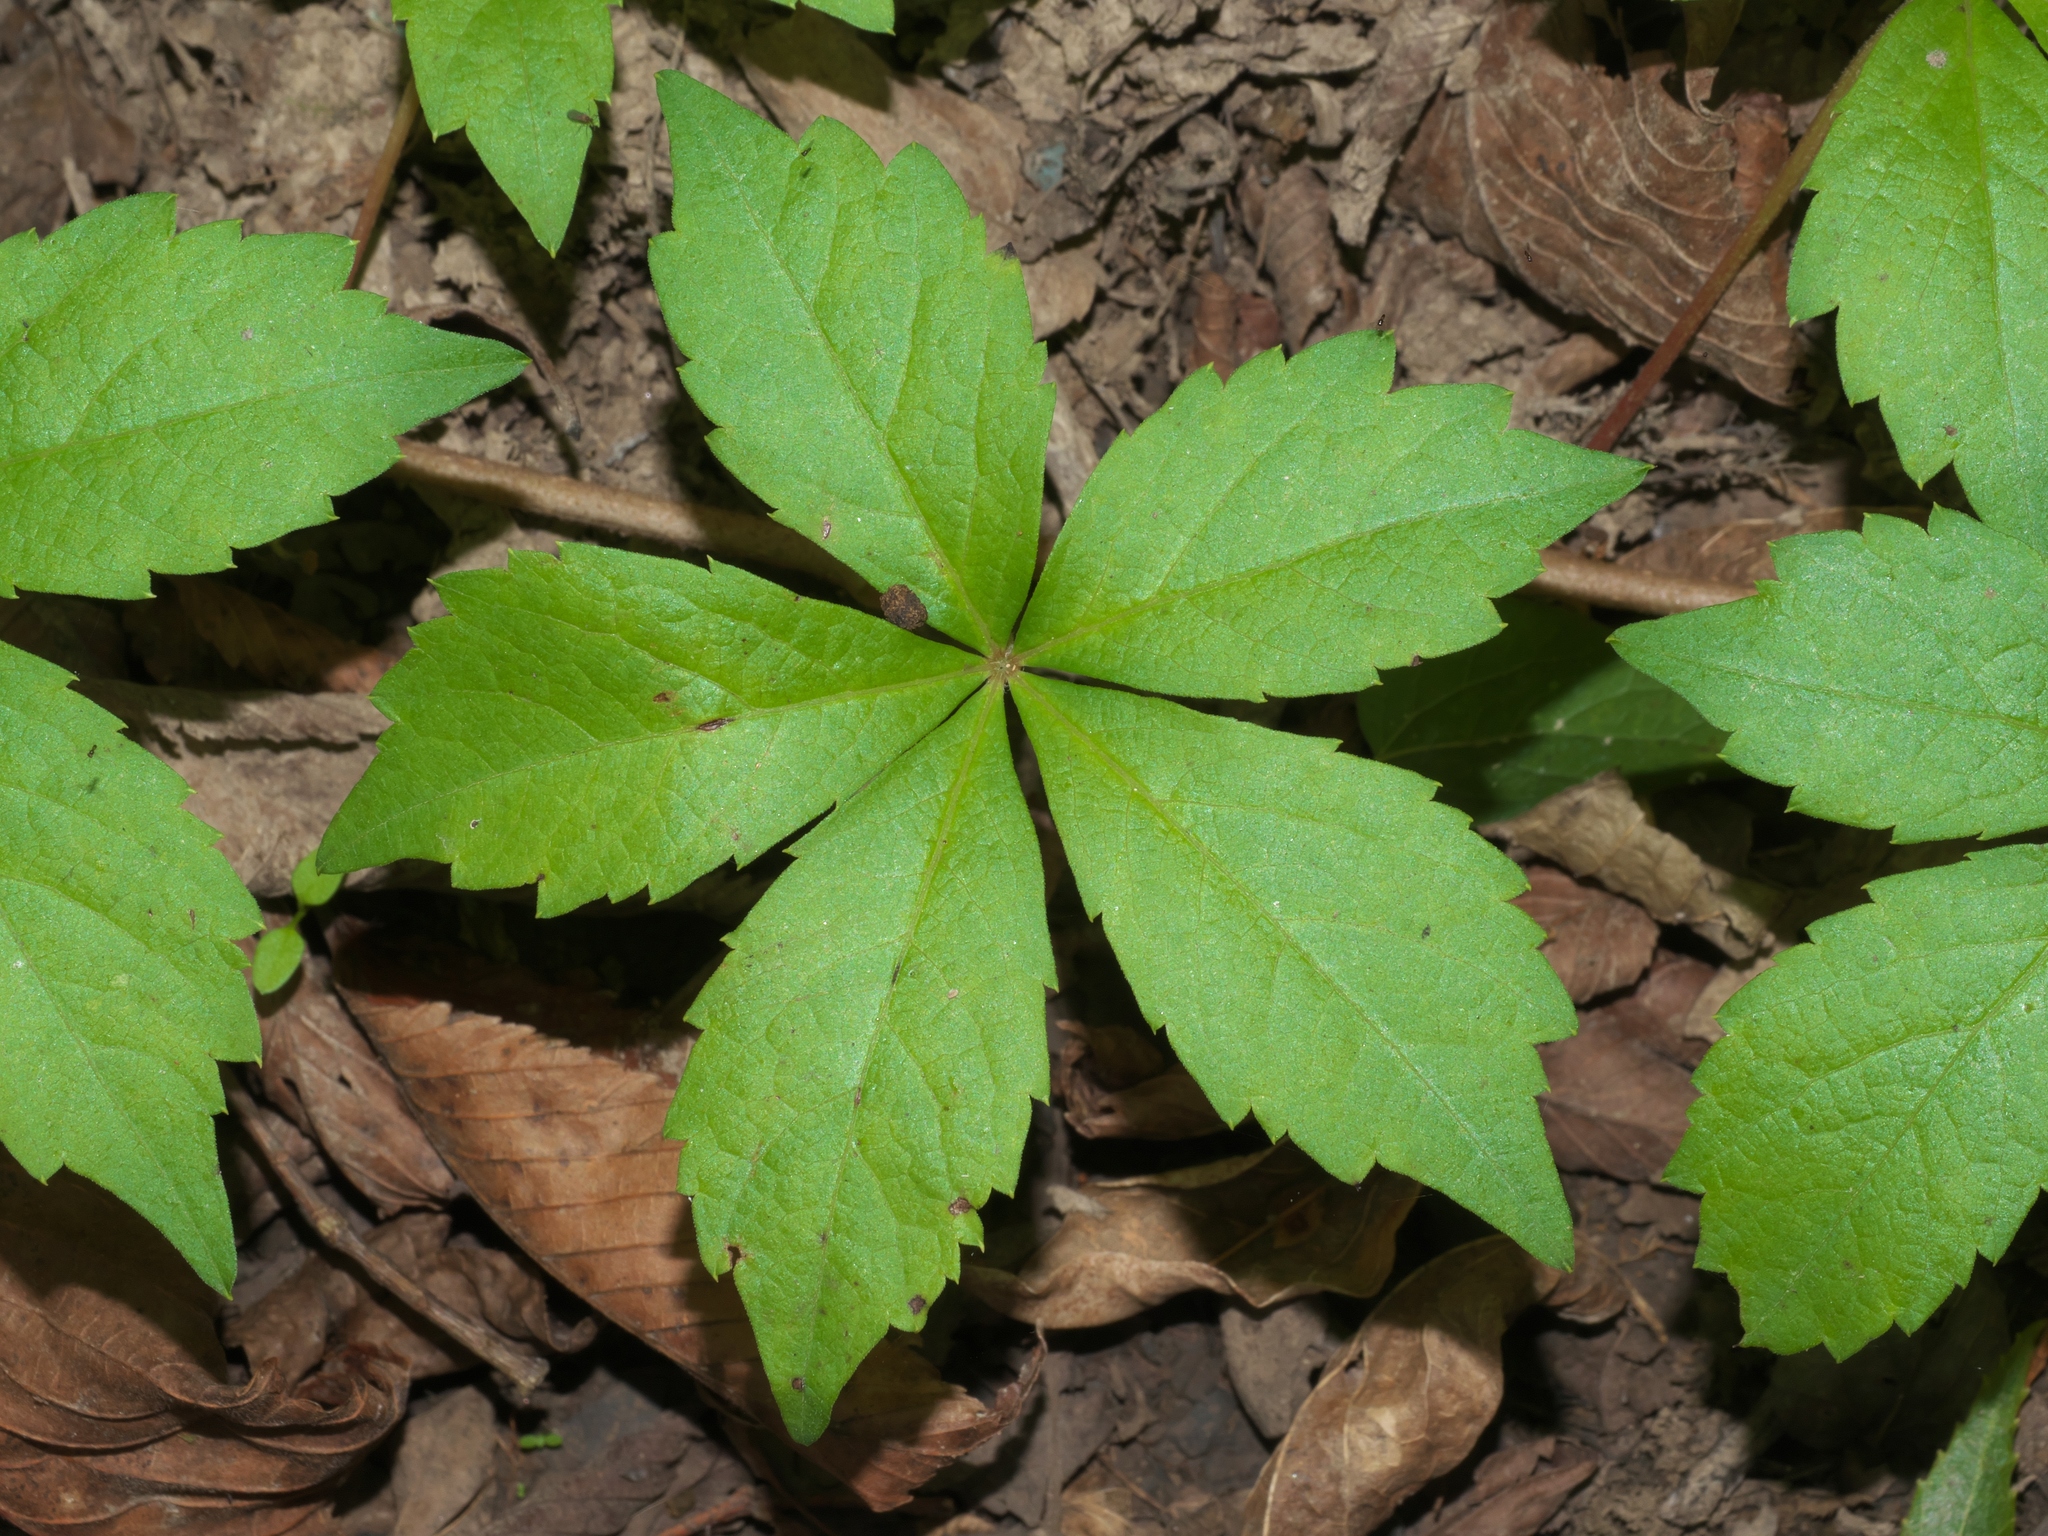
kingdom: Plantae
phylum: Tracheophyta
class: Magnoliopsida
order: Vitales
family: Vitaceae
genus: Parthenocissus
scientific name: Parthenocissus quinquefolia
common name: Virginia-creeper
